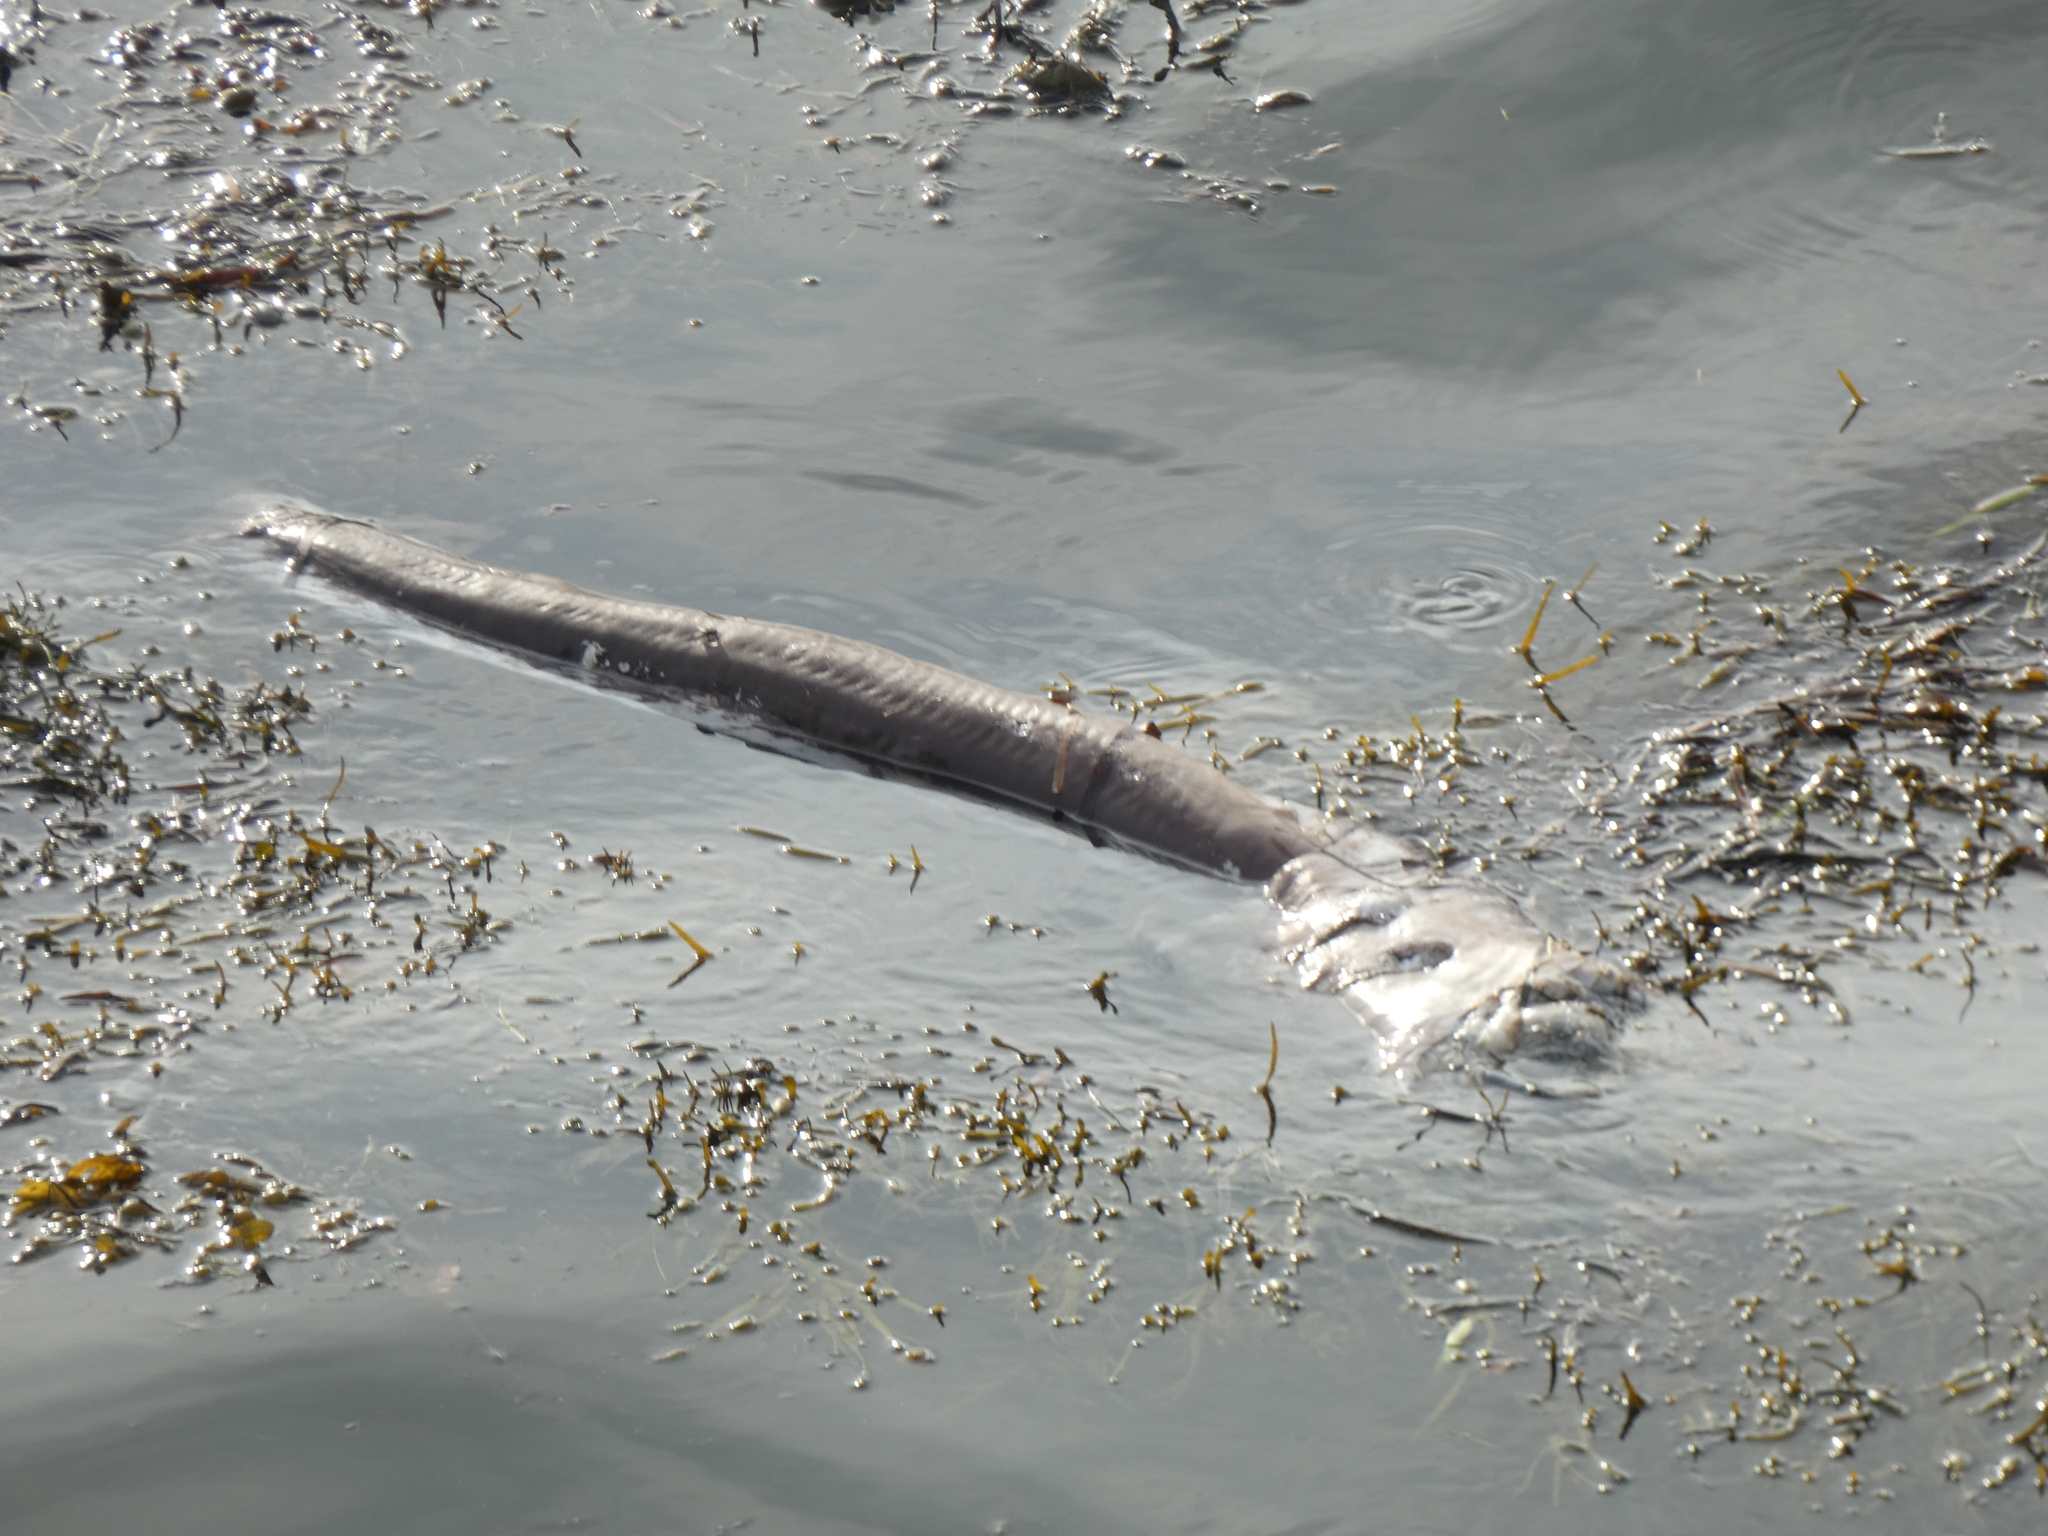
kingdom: Animalia
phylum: Chordata
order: Anguilliformes
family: Congridae
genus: Conger
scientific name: Conger conger
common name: Conger eel
